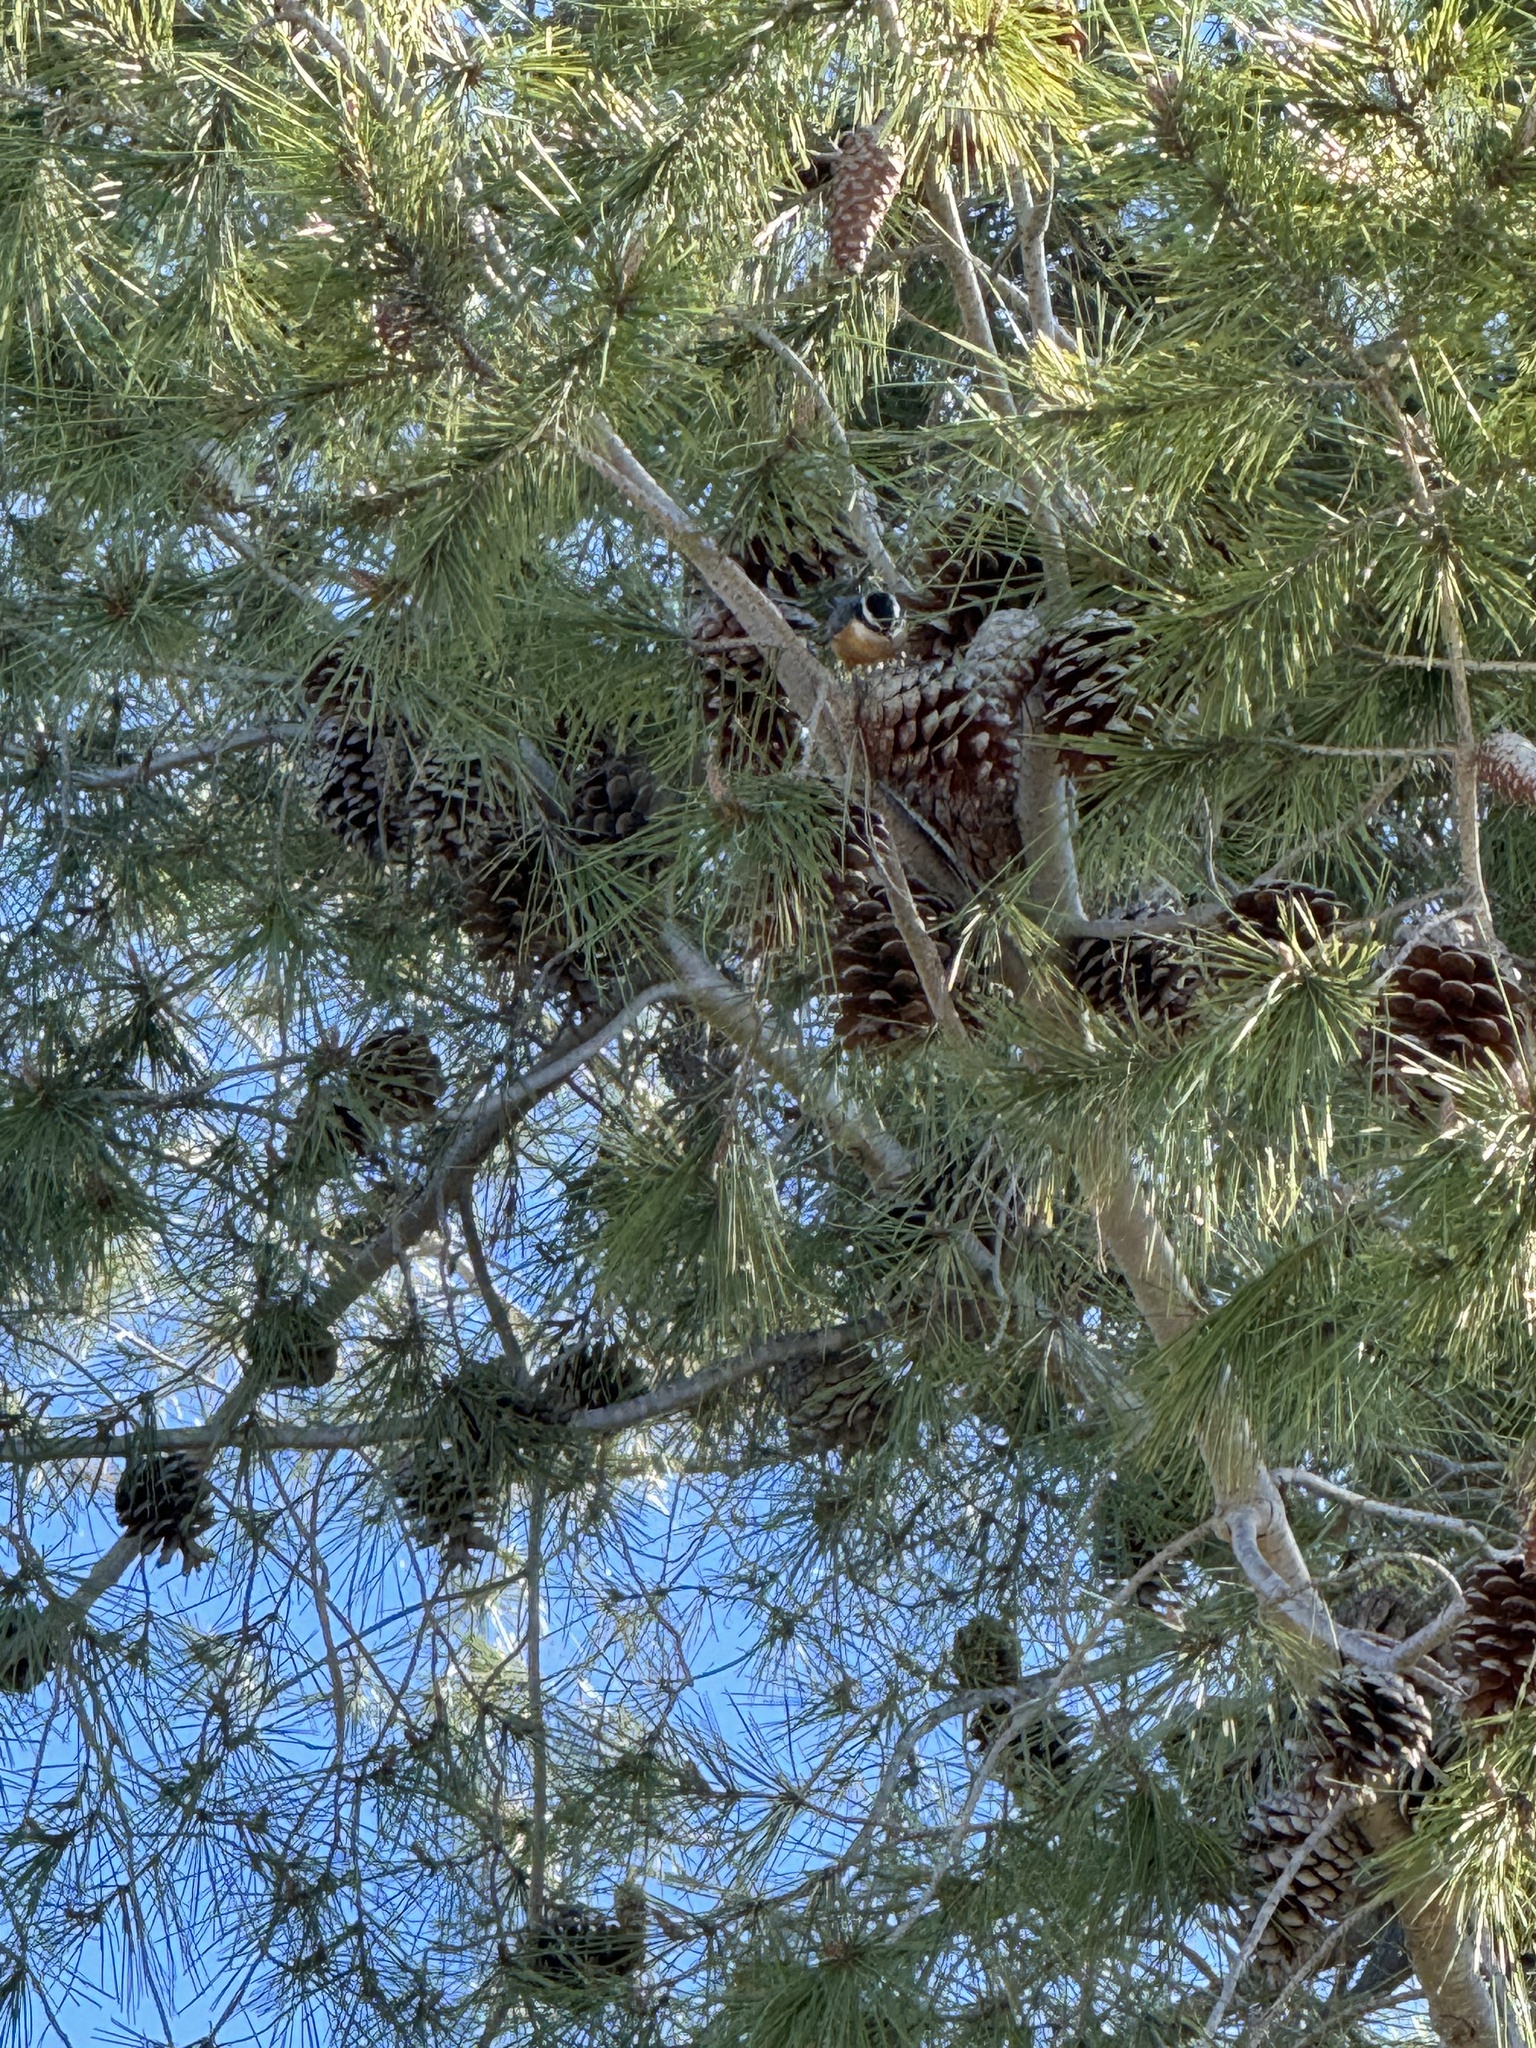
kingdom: Animalia
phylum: Chordata
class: Aves
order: Passeriformes
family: Sittidae
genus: Sitta
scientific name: Sitta canadensis
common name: Red-breasted nuthatch
